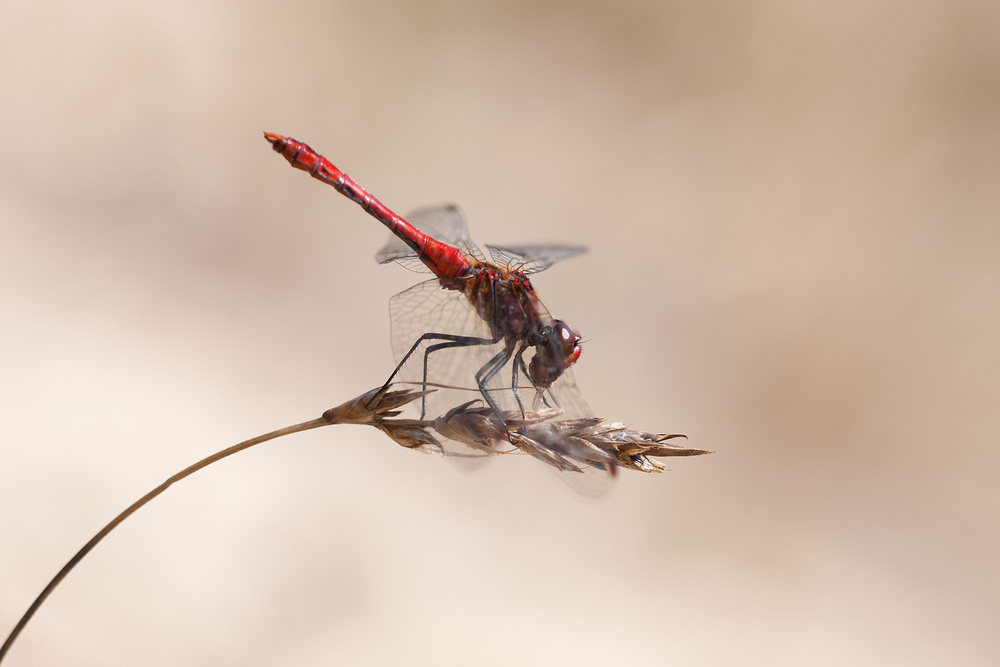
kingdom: Animalia
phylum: Arthropoda
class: Insecta
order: Odonata
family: Libellulidae
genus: Sympetrum
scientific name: Sympetrum sanguineum
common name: Ruddy darter
